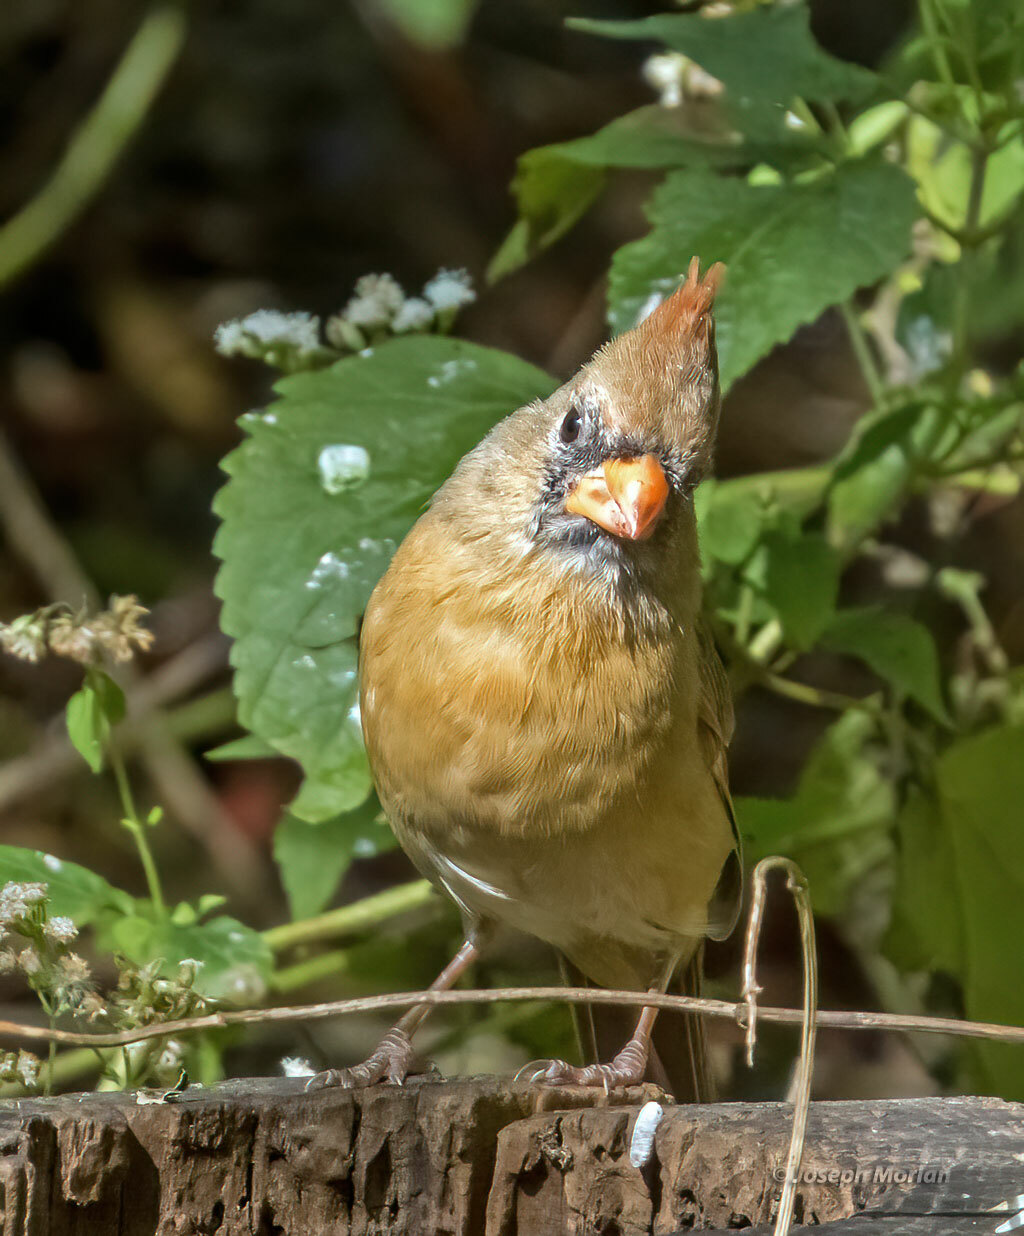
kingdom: Animalia
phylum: Chordata
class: Aves
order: Passeriformes
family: Cardinalidae
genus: Cardinalis
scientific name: Cardinalis cardinalis
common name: Northern cardinal
